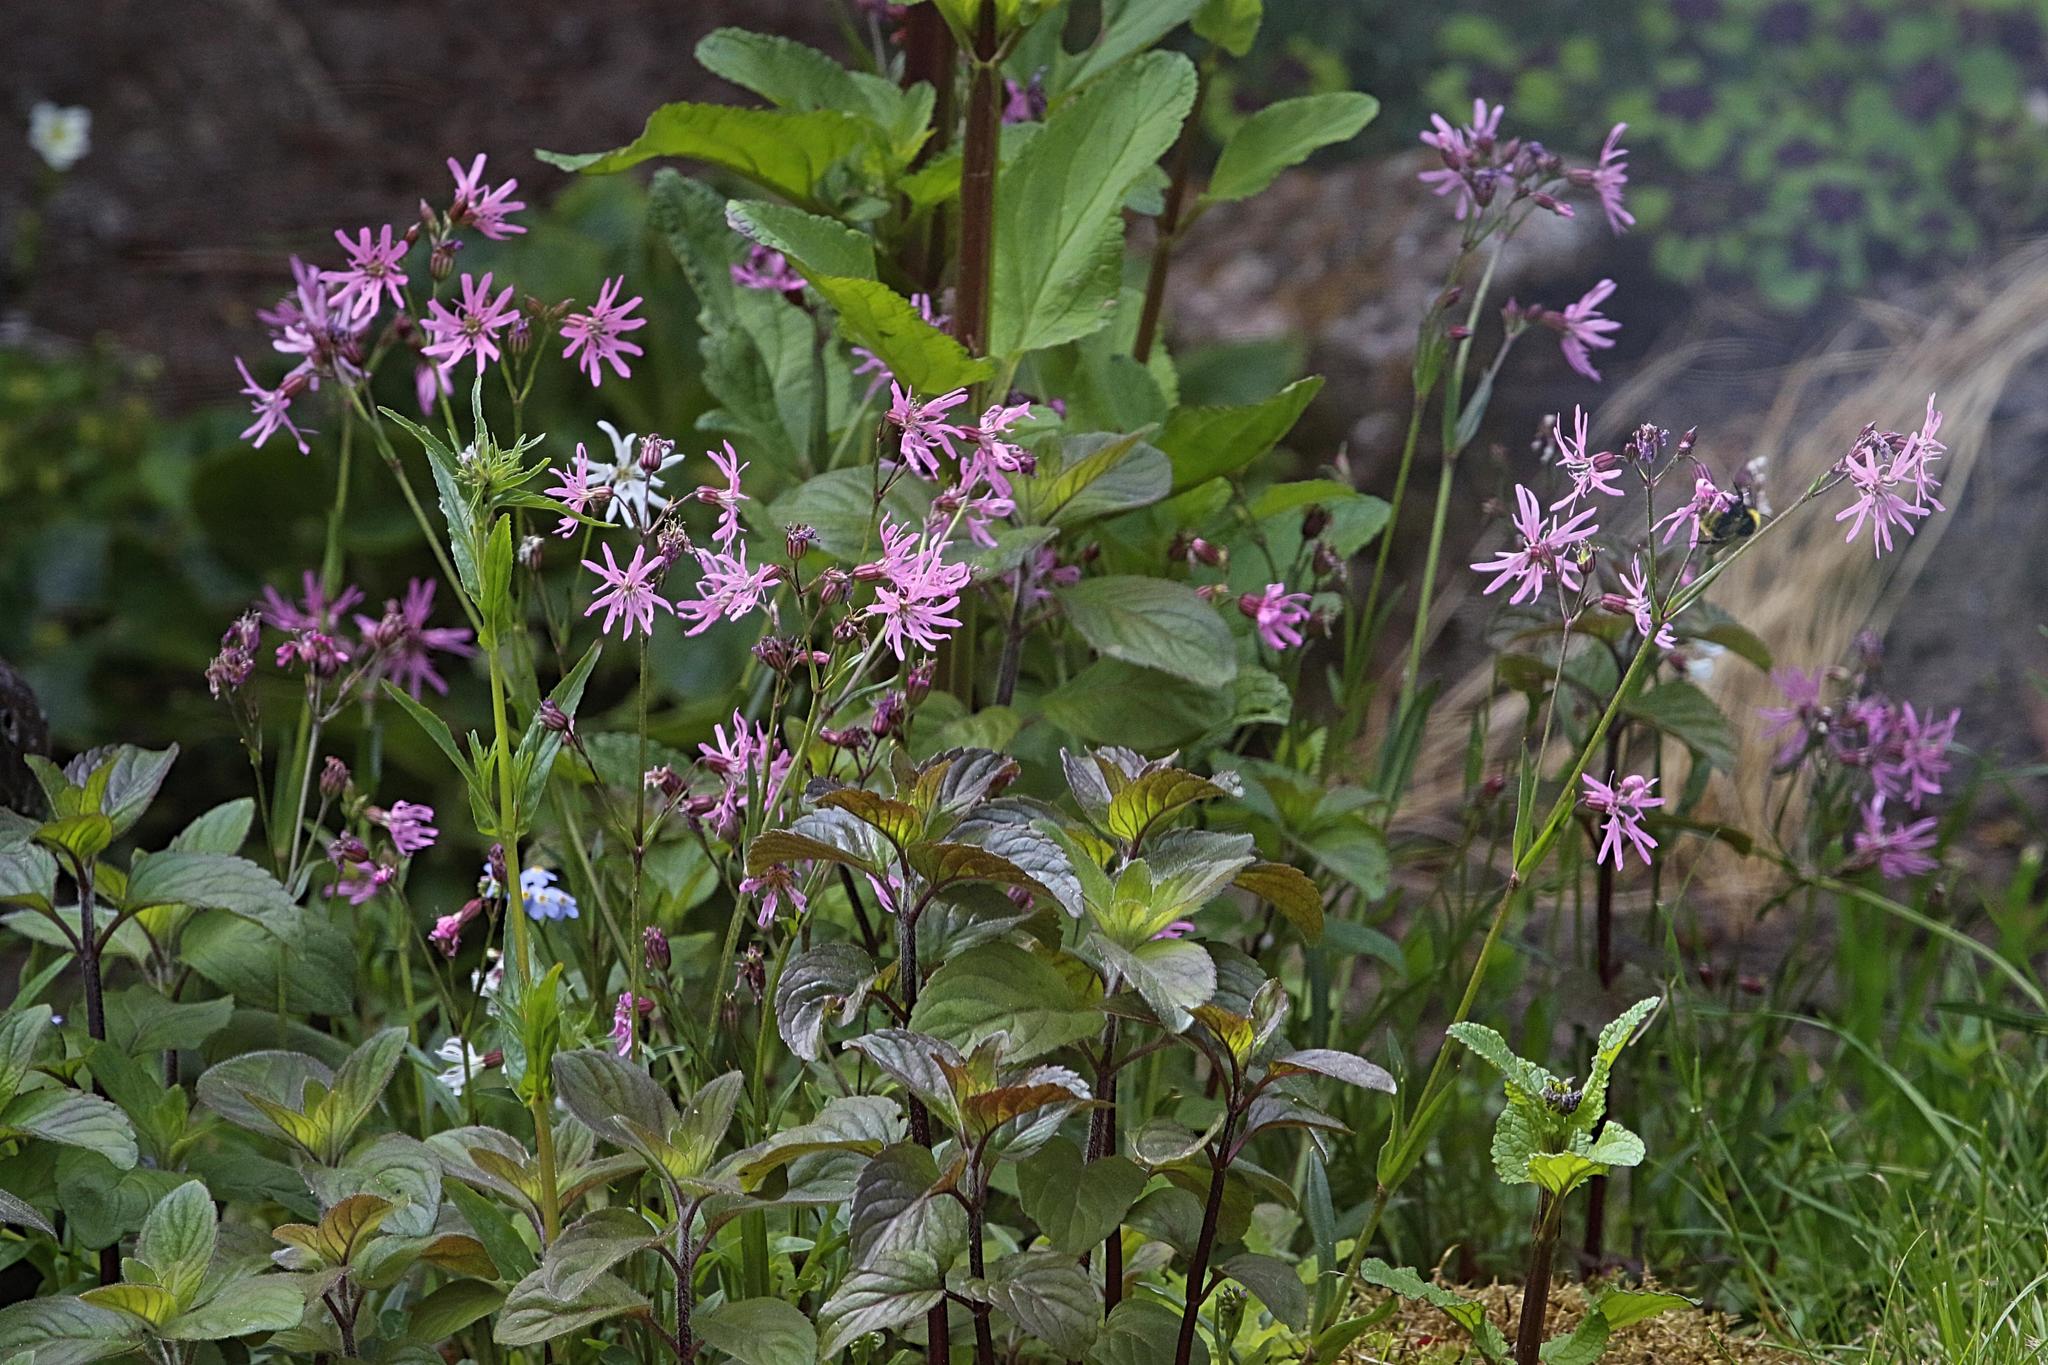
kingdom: Plantae
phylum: Tracheophyta
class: Magnoliopsida
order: Caryophyllales
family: Caryophyllaceae
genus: Silene
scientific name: Silene flos-cuculi
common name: Ragged-robin
